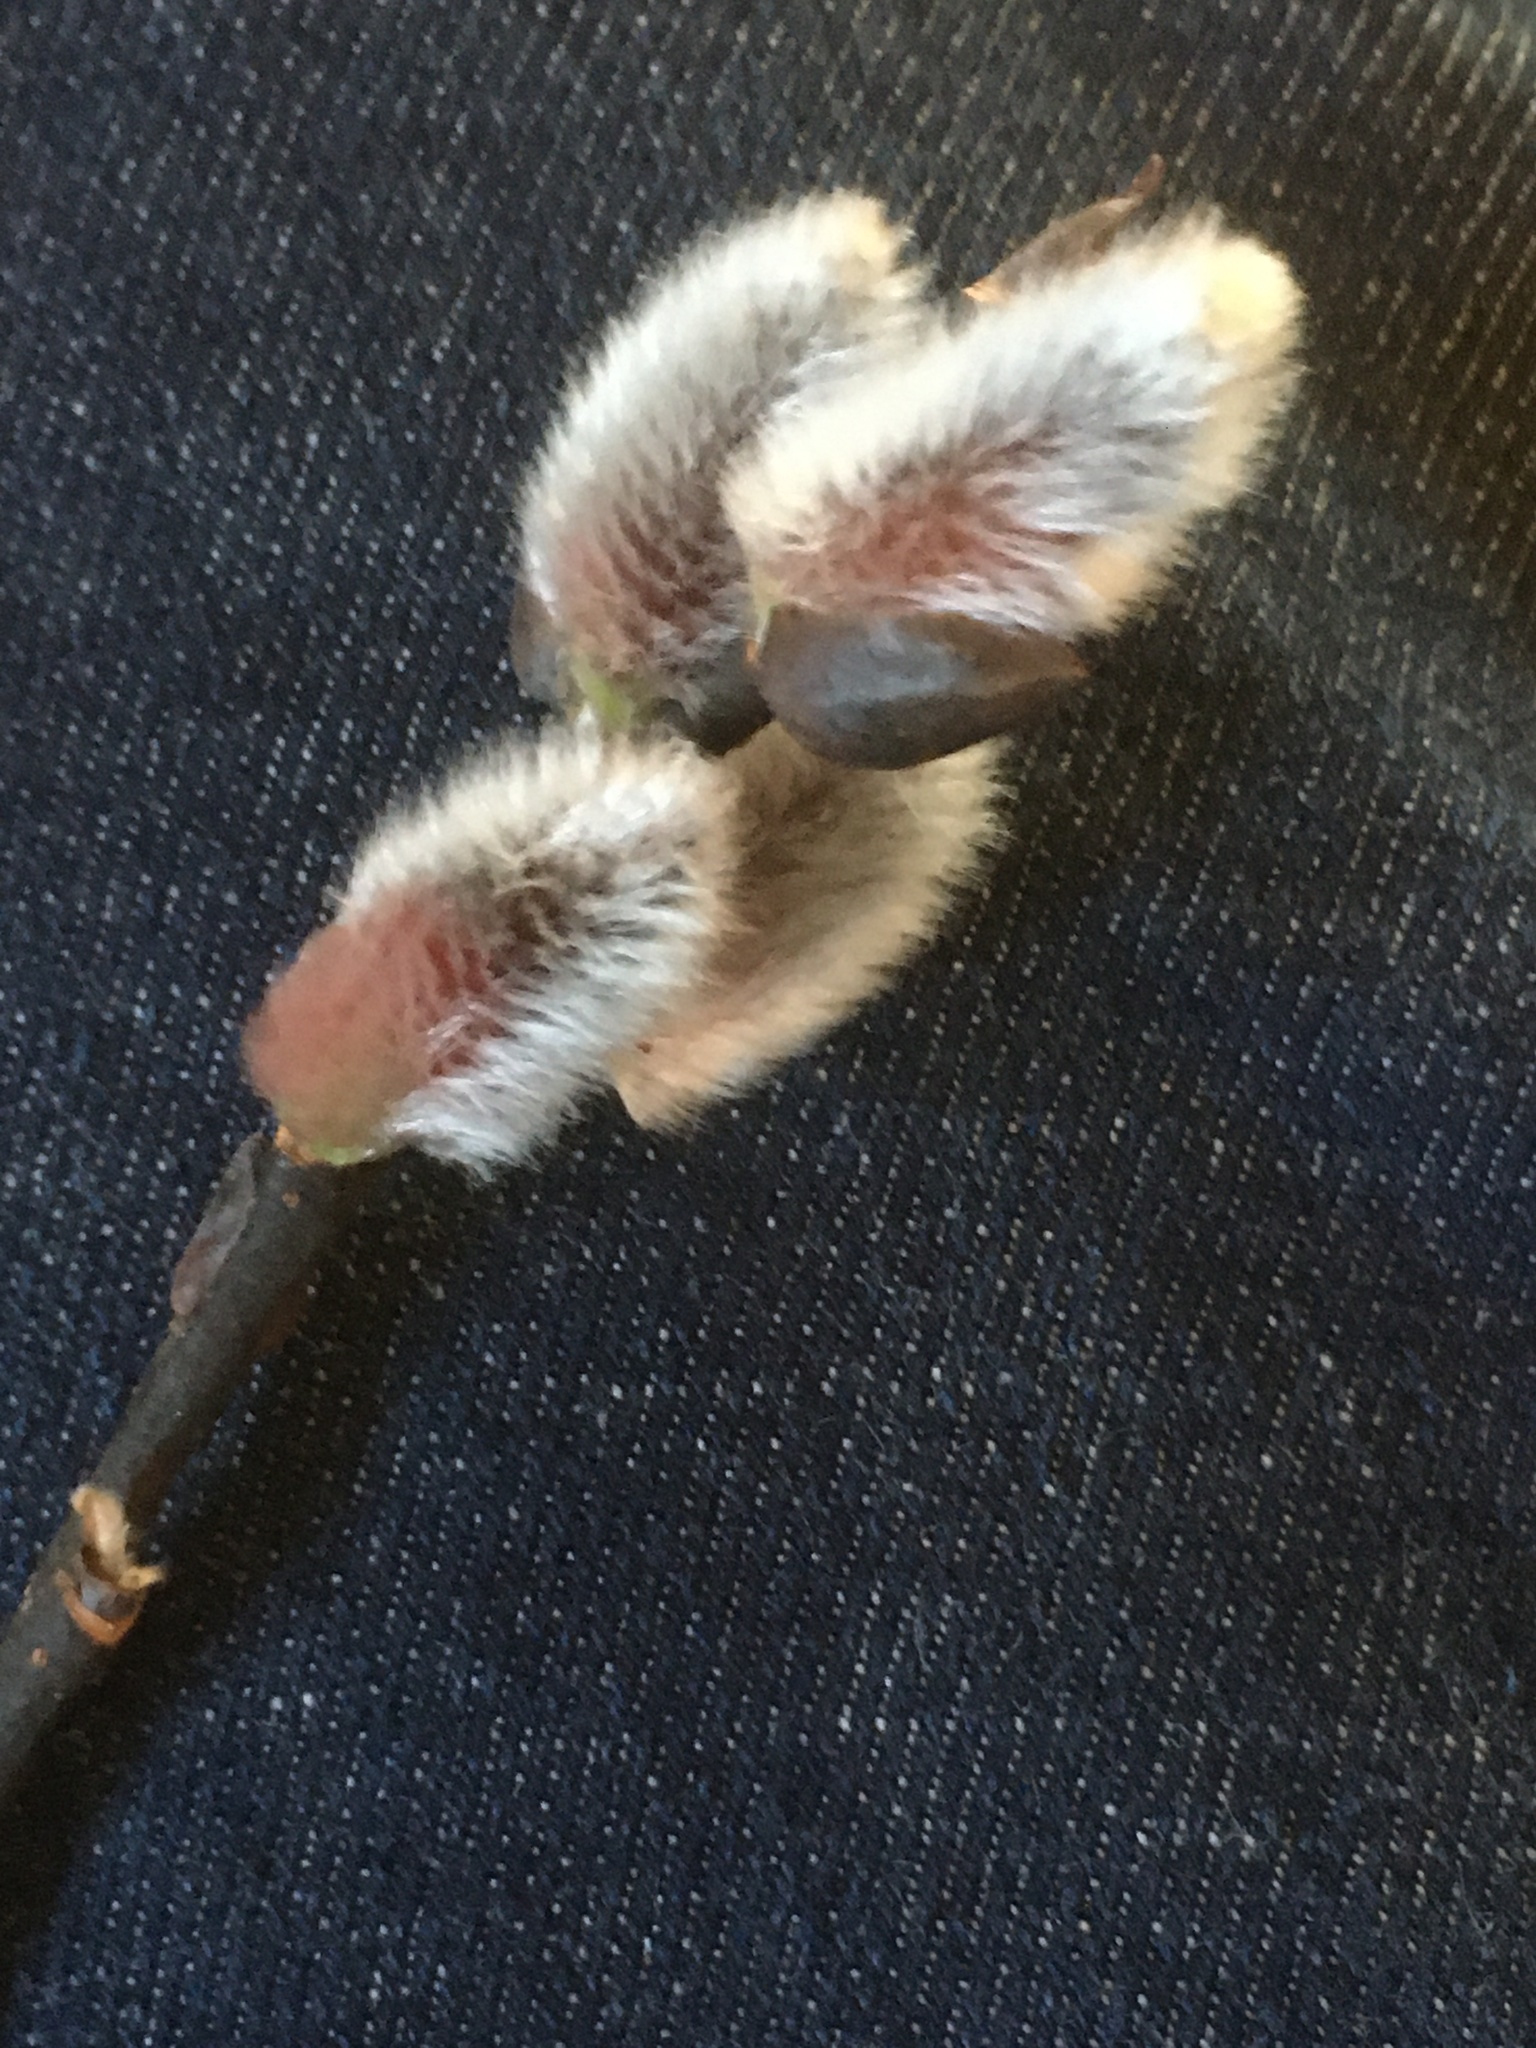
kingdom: Plantae
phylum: Tracheophyta
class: Magnoliopsida
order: Malpighiales
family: Salicaceae
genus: Salix
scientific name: Salix discolor
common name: Glaucous willow
